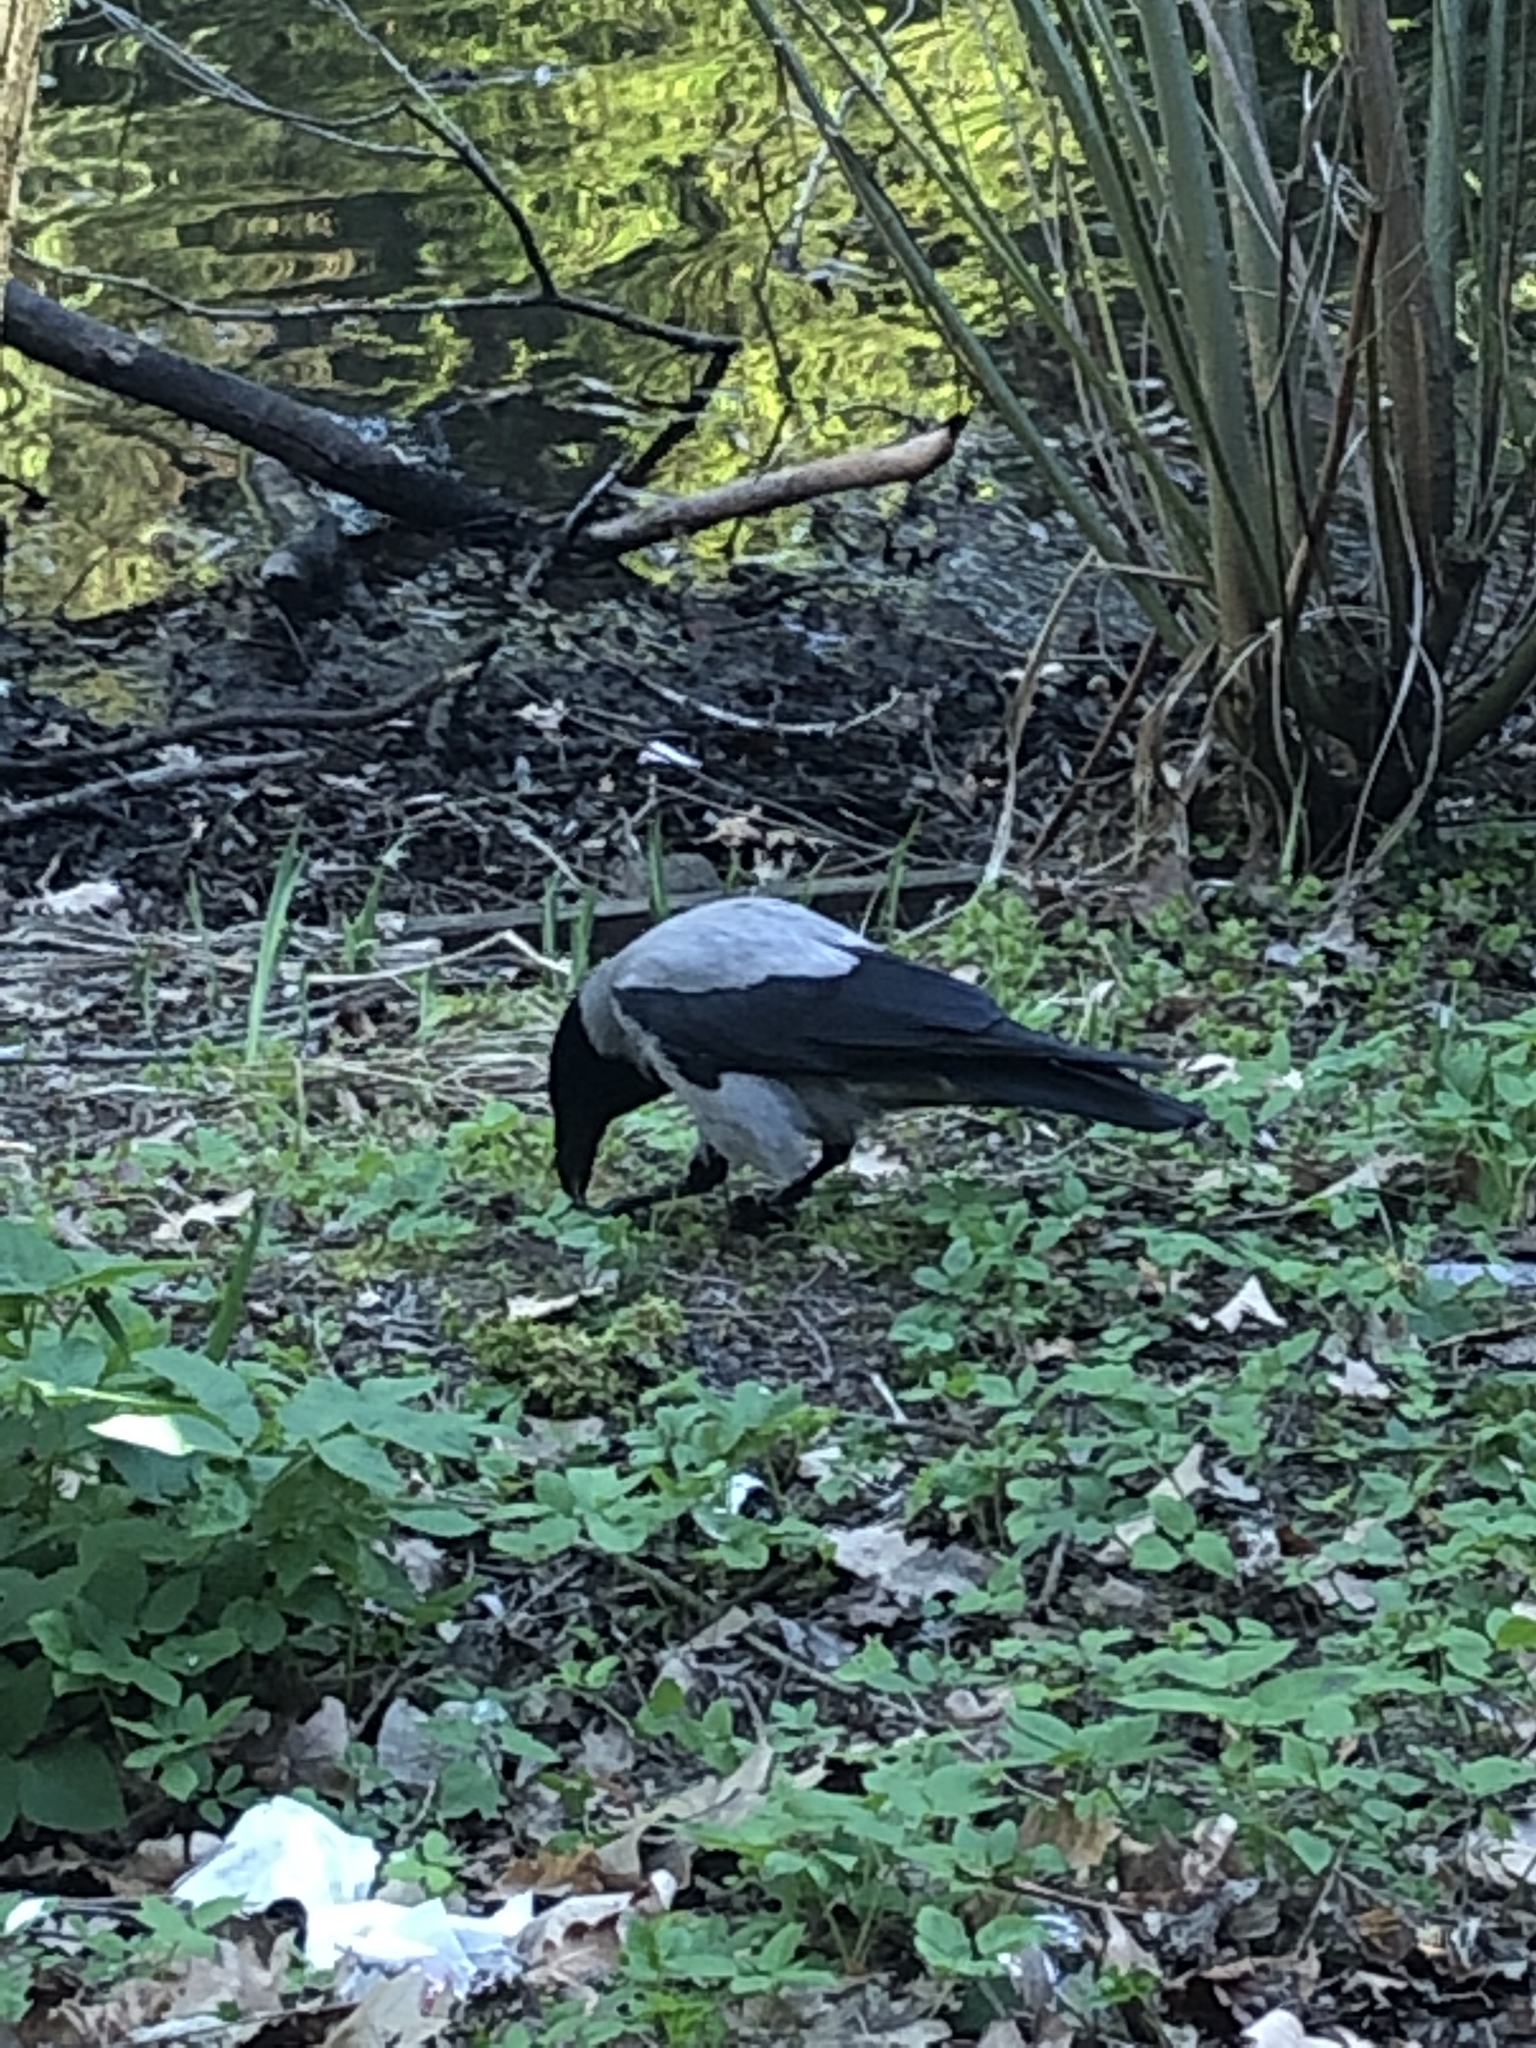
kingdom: Animalia
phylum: Chordata
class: Aves
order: Passeriformes
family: Corvidae
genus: Corvus
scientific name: Corvus cornix
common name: Hooded crow
